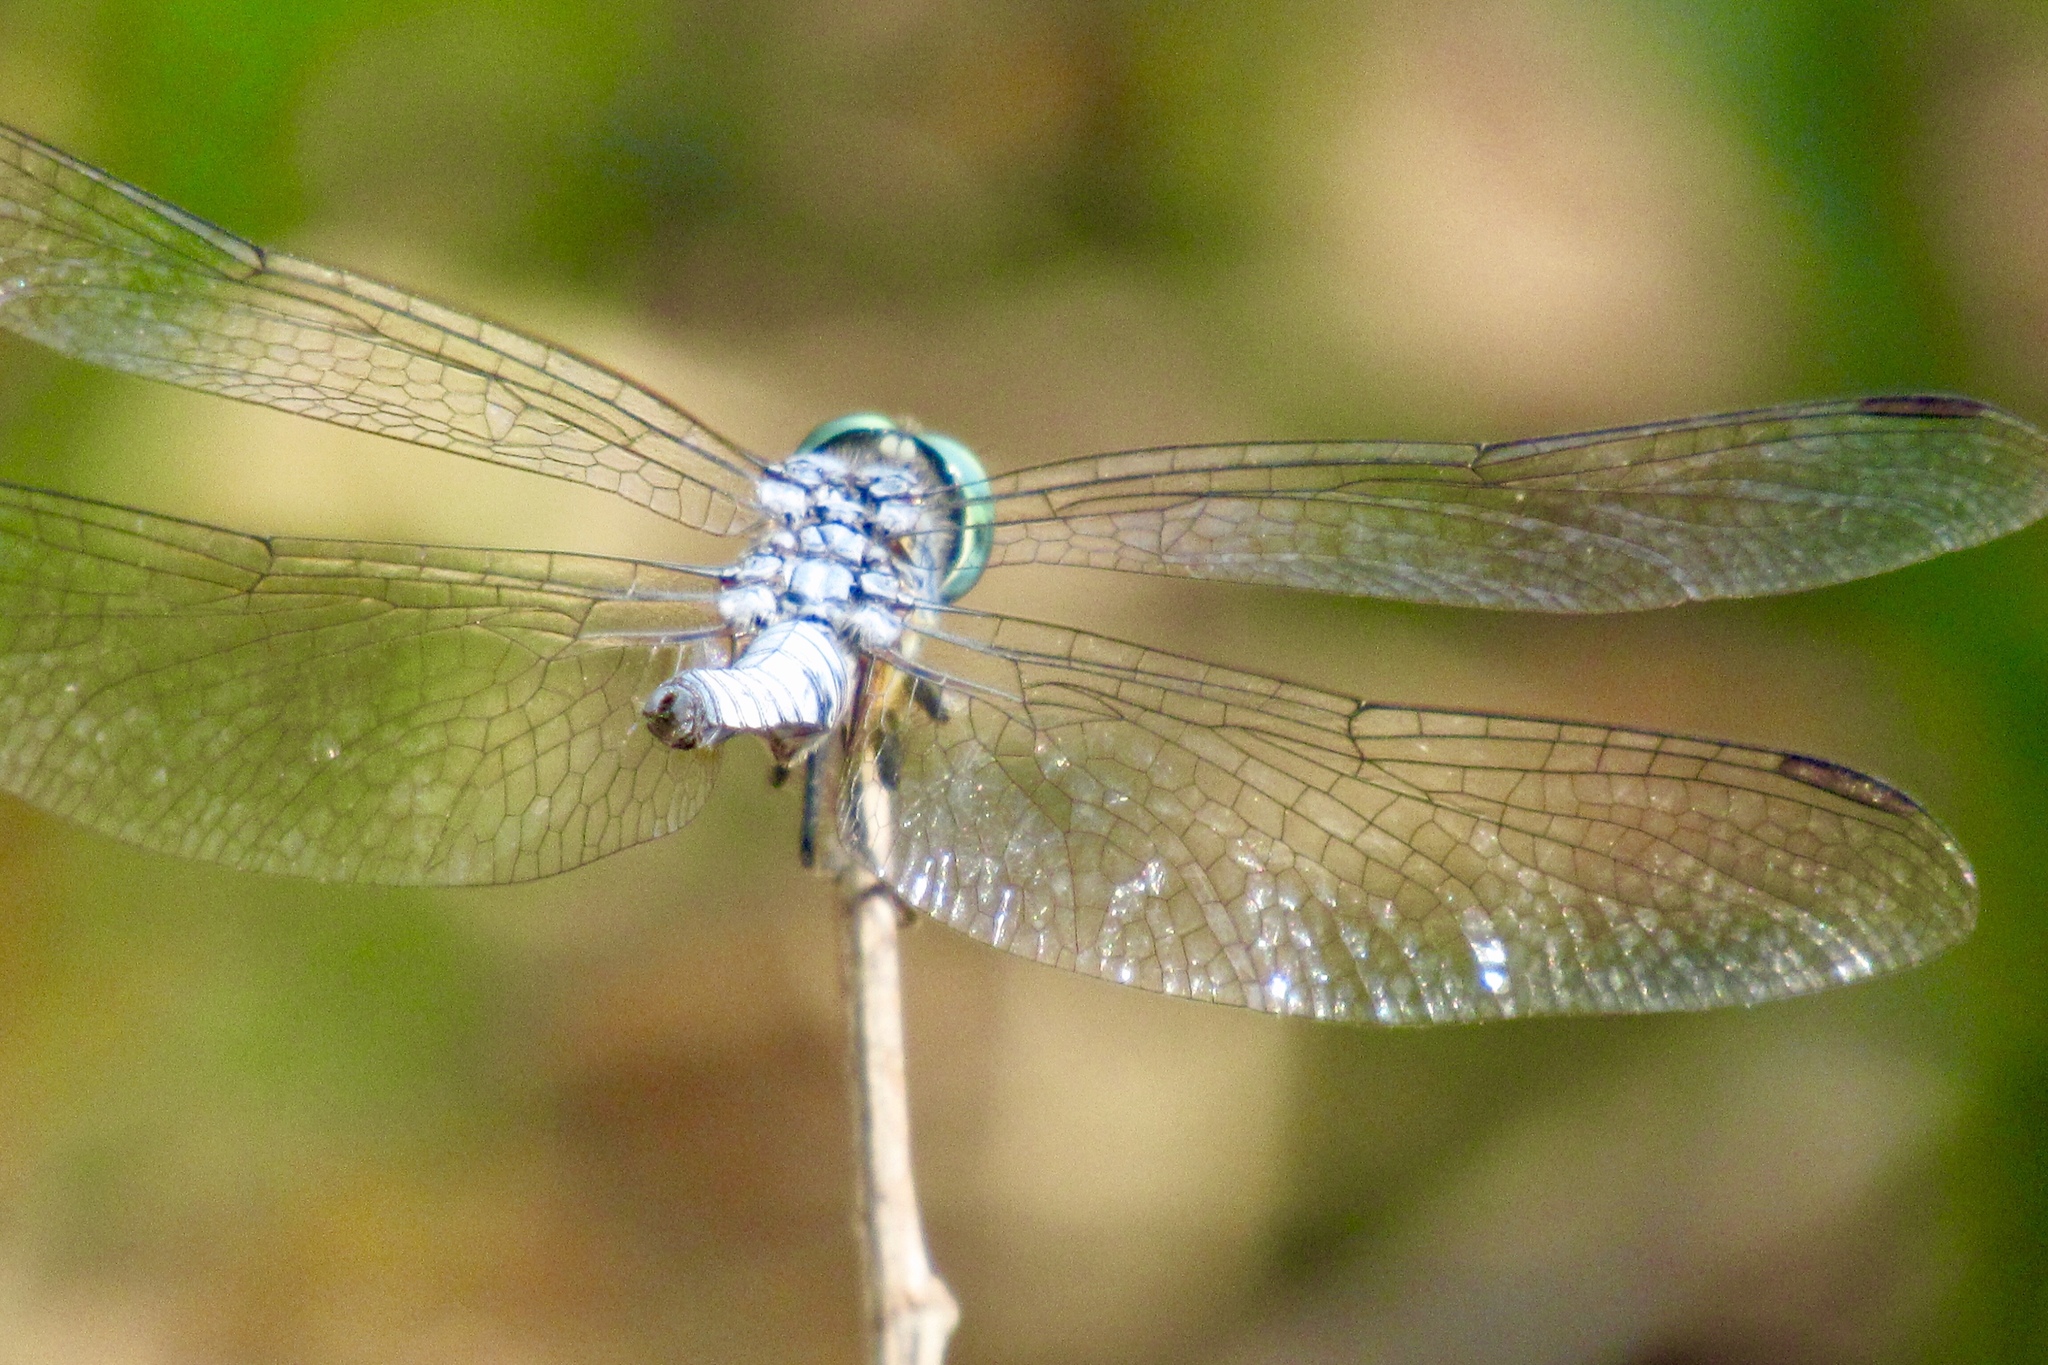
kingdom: Animalia
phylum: Arthropoda
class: Insecta
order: Odonata
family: Libellulidae
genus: Pachydiplax
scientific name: Pachydiplax longipennis
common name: Blue dasher
